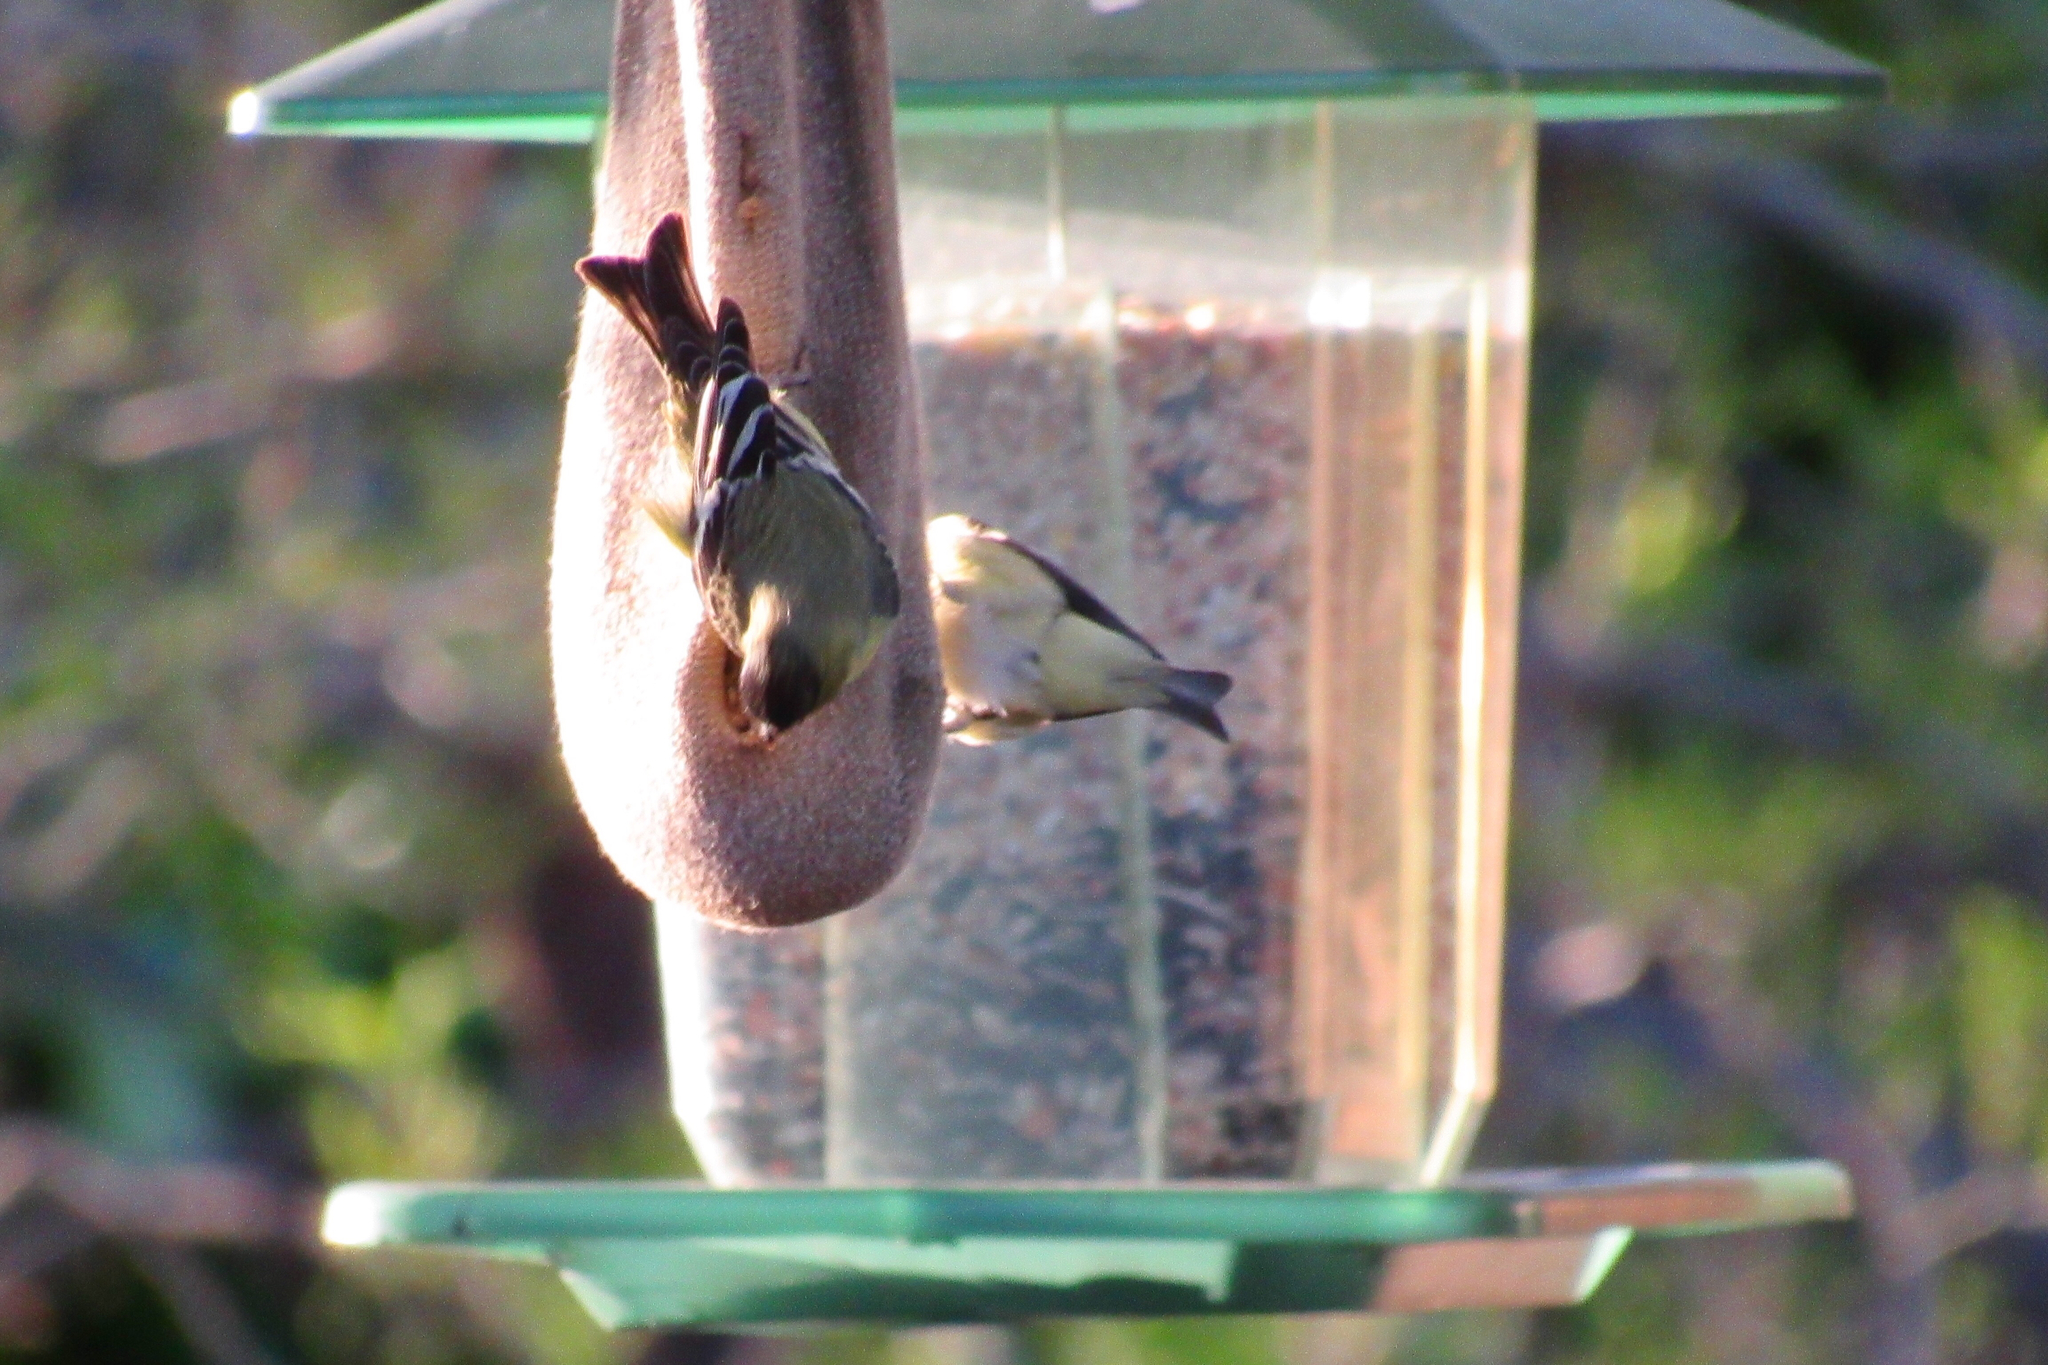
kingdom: Animalia
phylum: Chordata
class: Aves
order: Passeriformes
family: Fringillidae
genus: Spinus
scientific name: Spinus psaltria
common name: Lesser goldfinch
